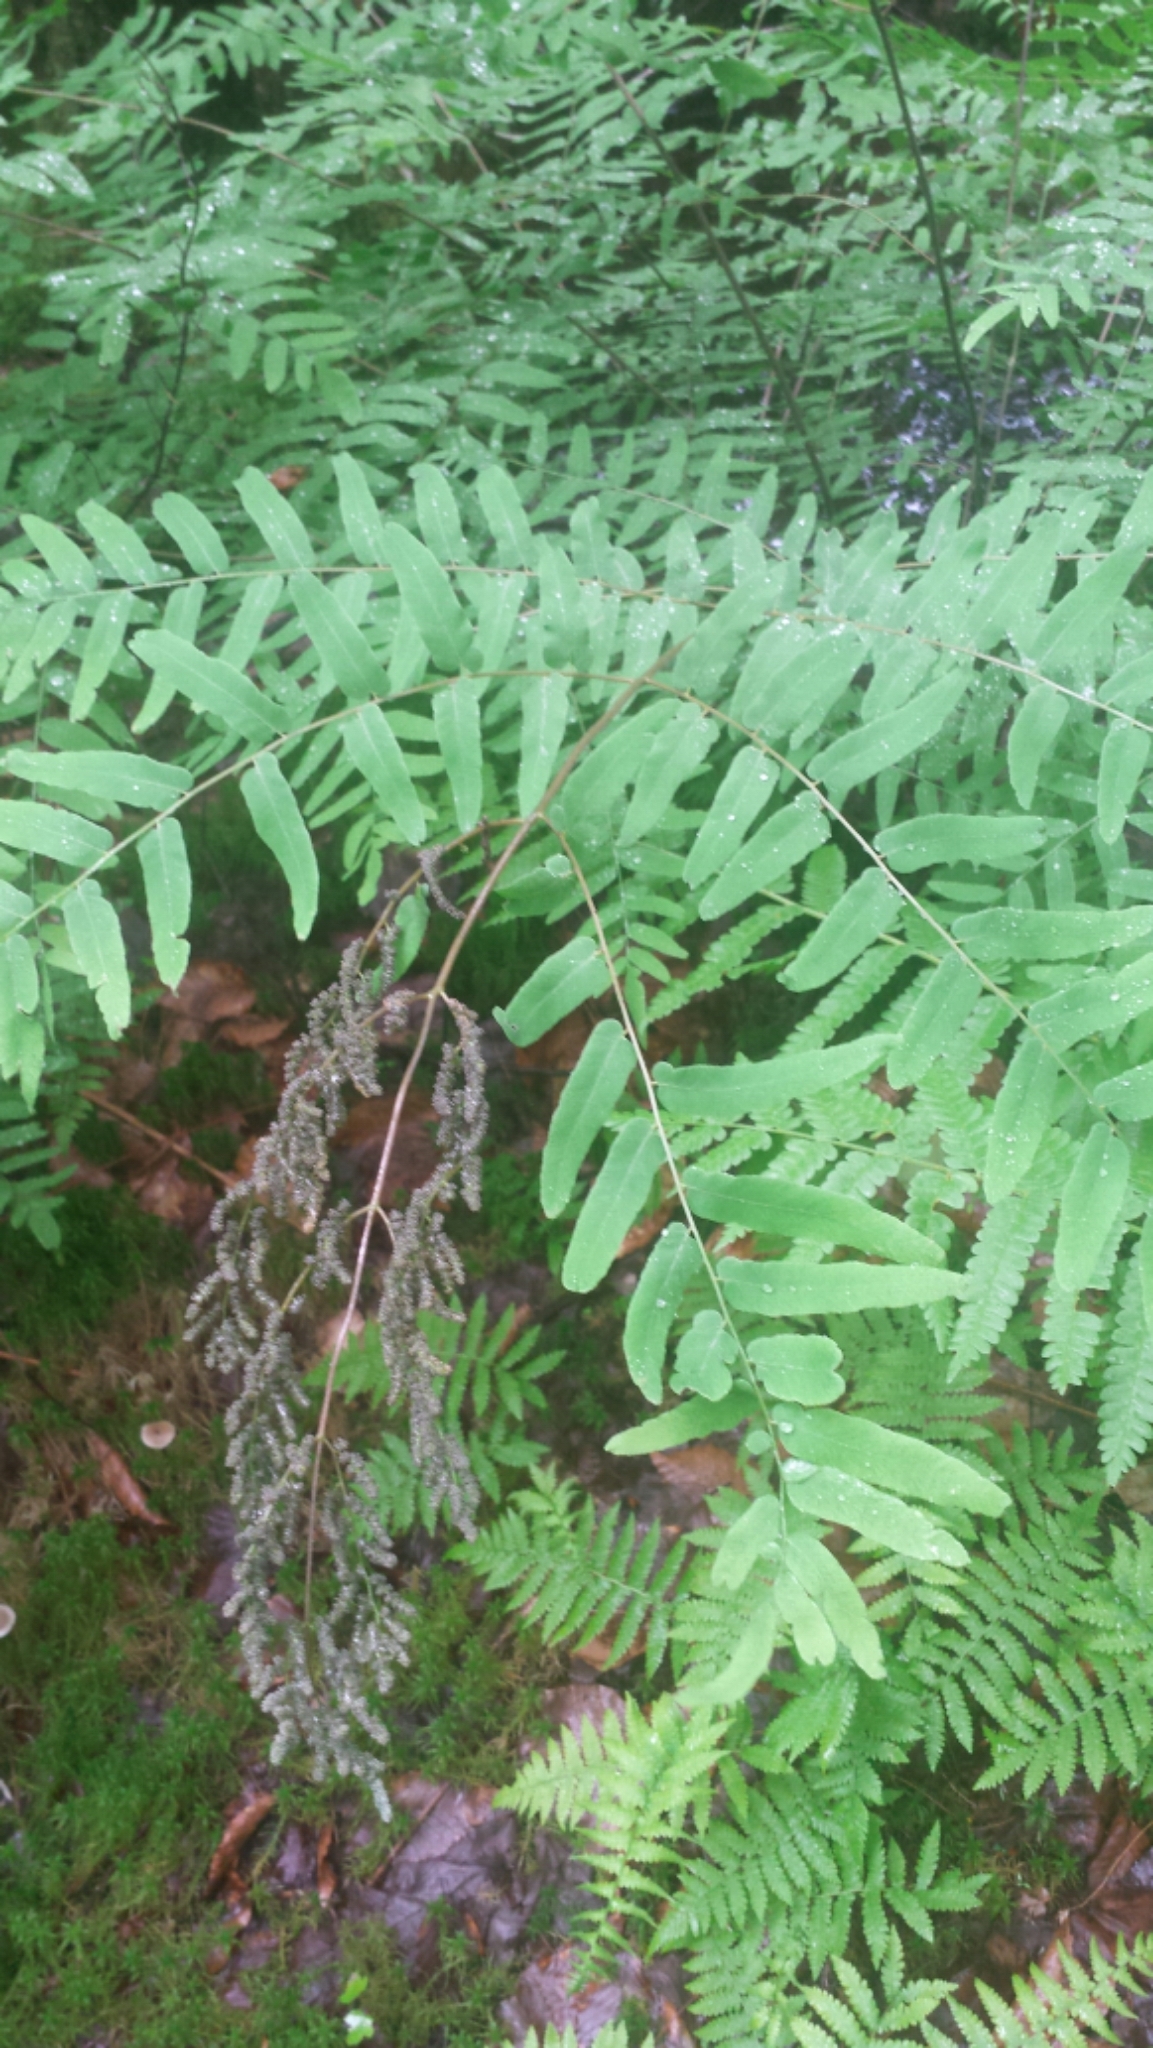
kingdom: Plantae
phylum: Tracheophyta
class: Polypodiopsida
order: Osmundales
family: Osmundaceae
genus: Osmunda
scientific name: Osmunda spectabilis
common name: American royal fern
